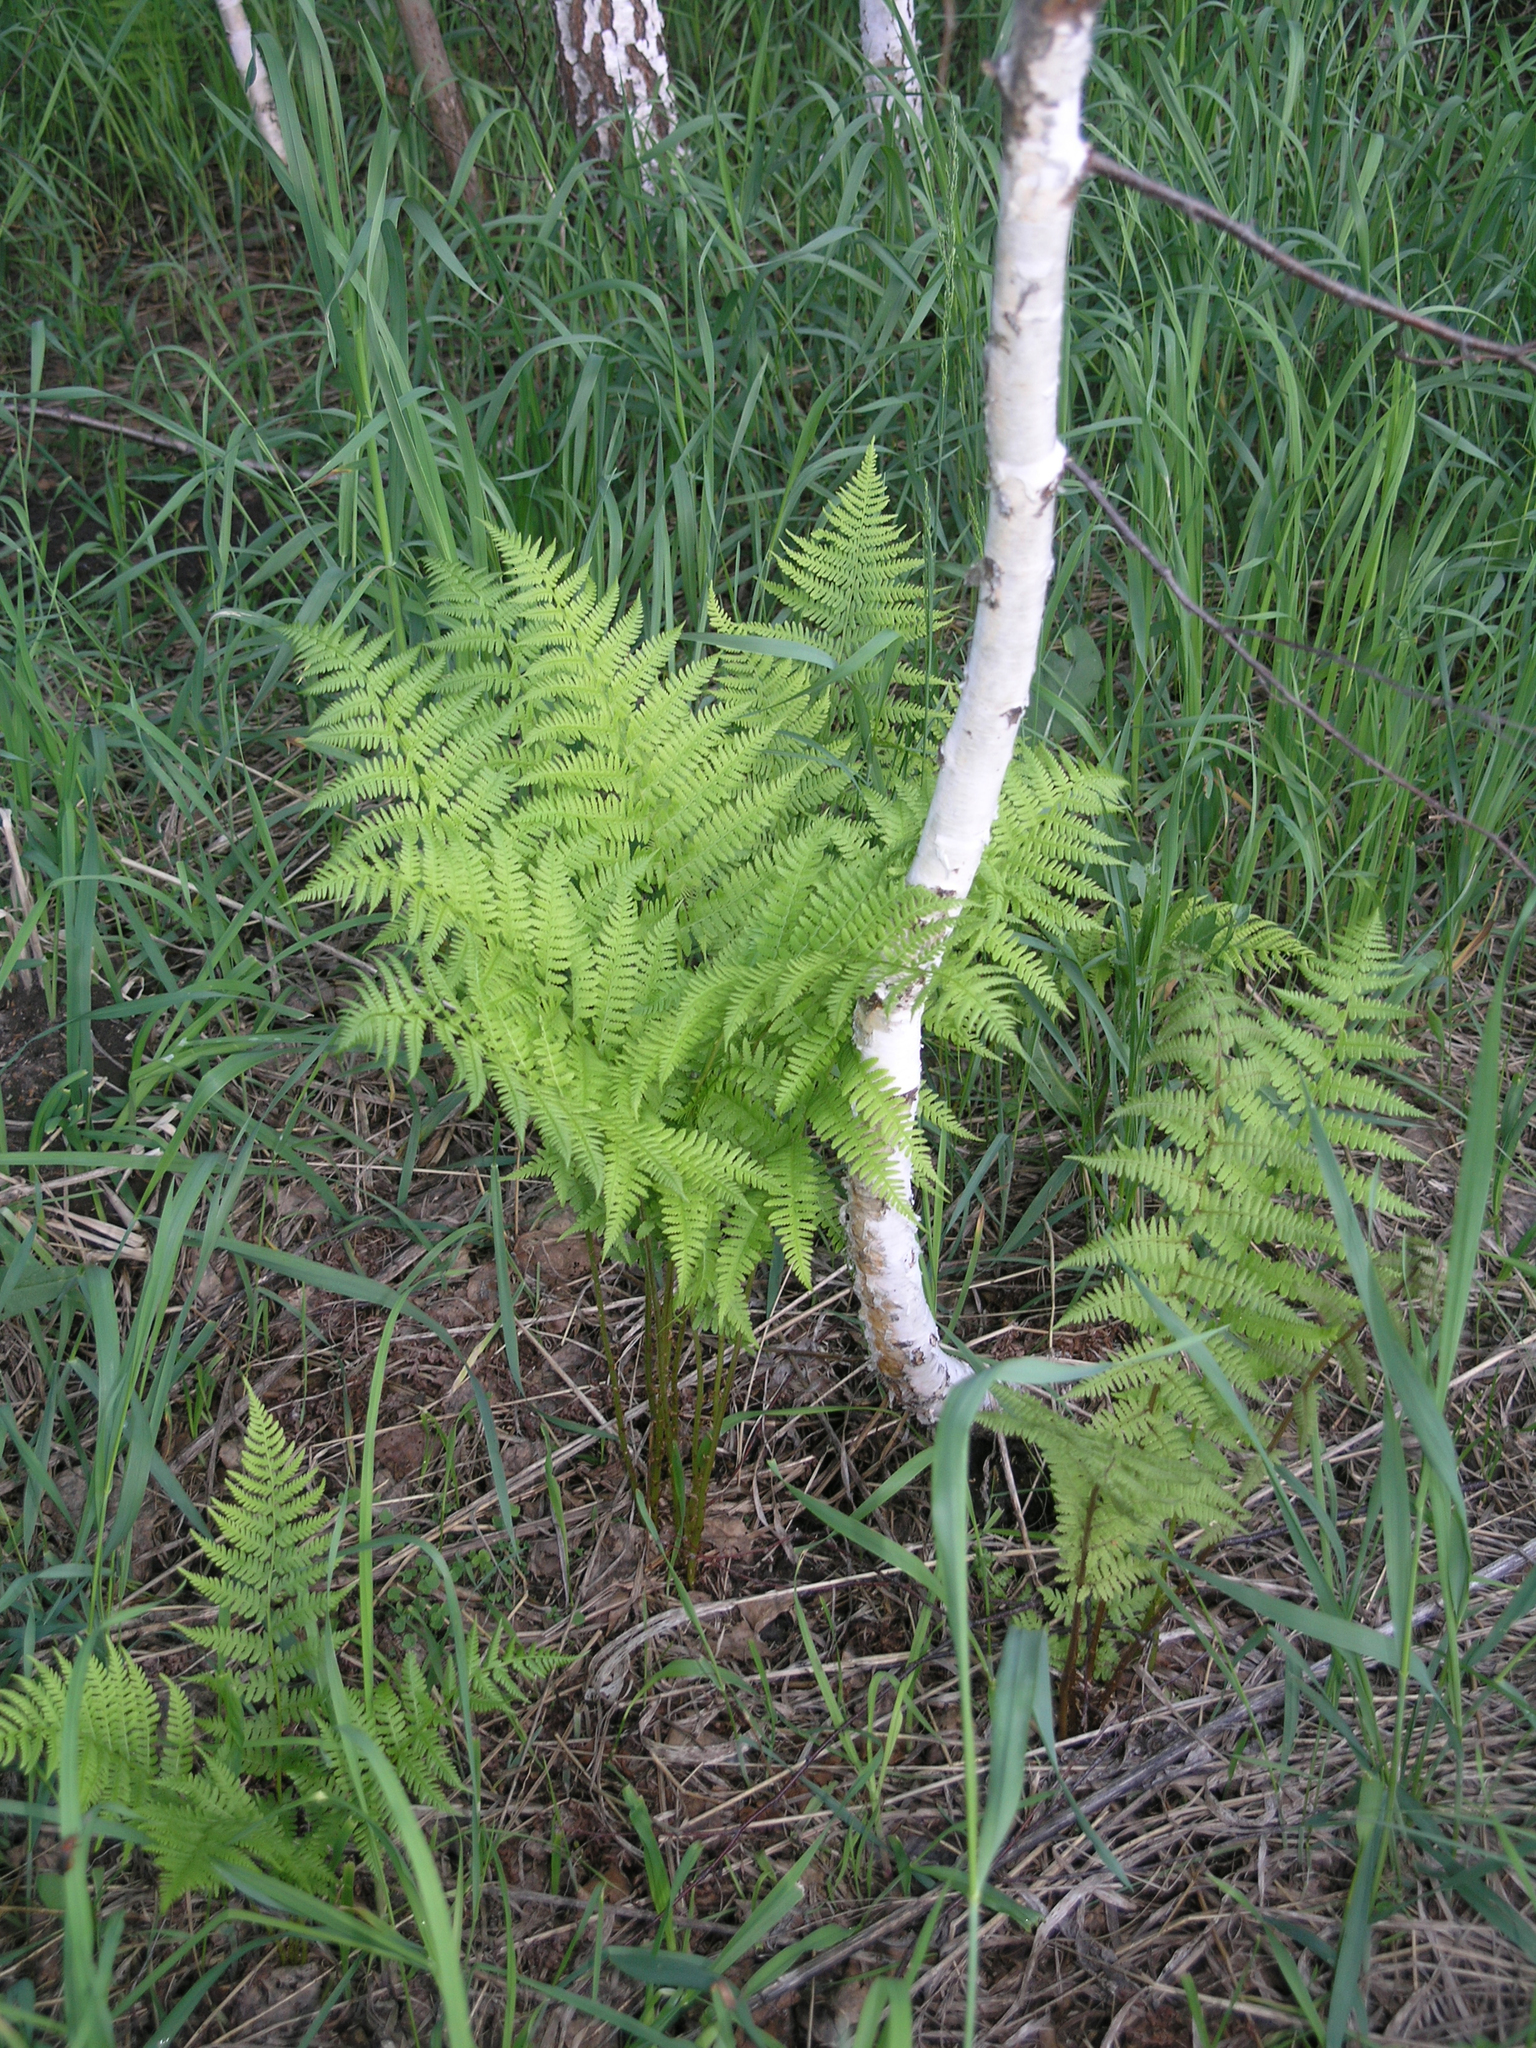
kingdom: Plantae
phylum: Tracheophyta
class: Polypodiopsida
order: Polypodiales
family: Athyriaceae
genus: Athyrium
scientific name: Athyrium filix-femina
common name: Lady fern
